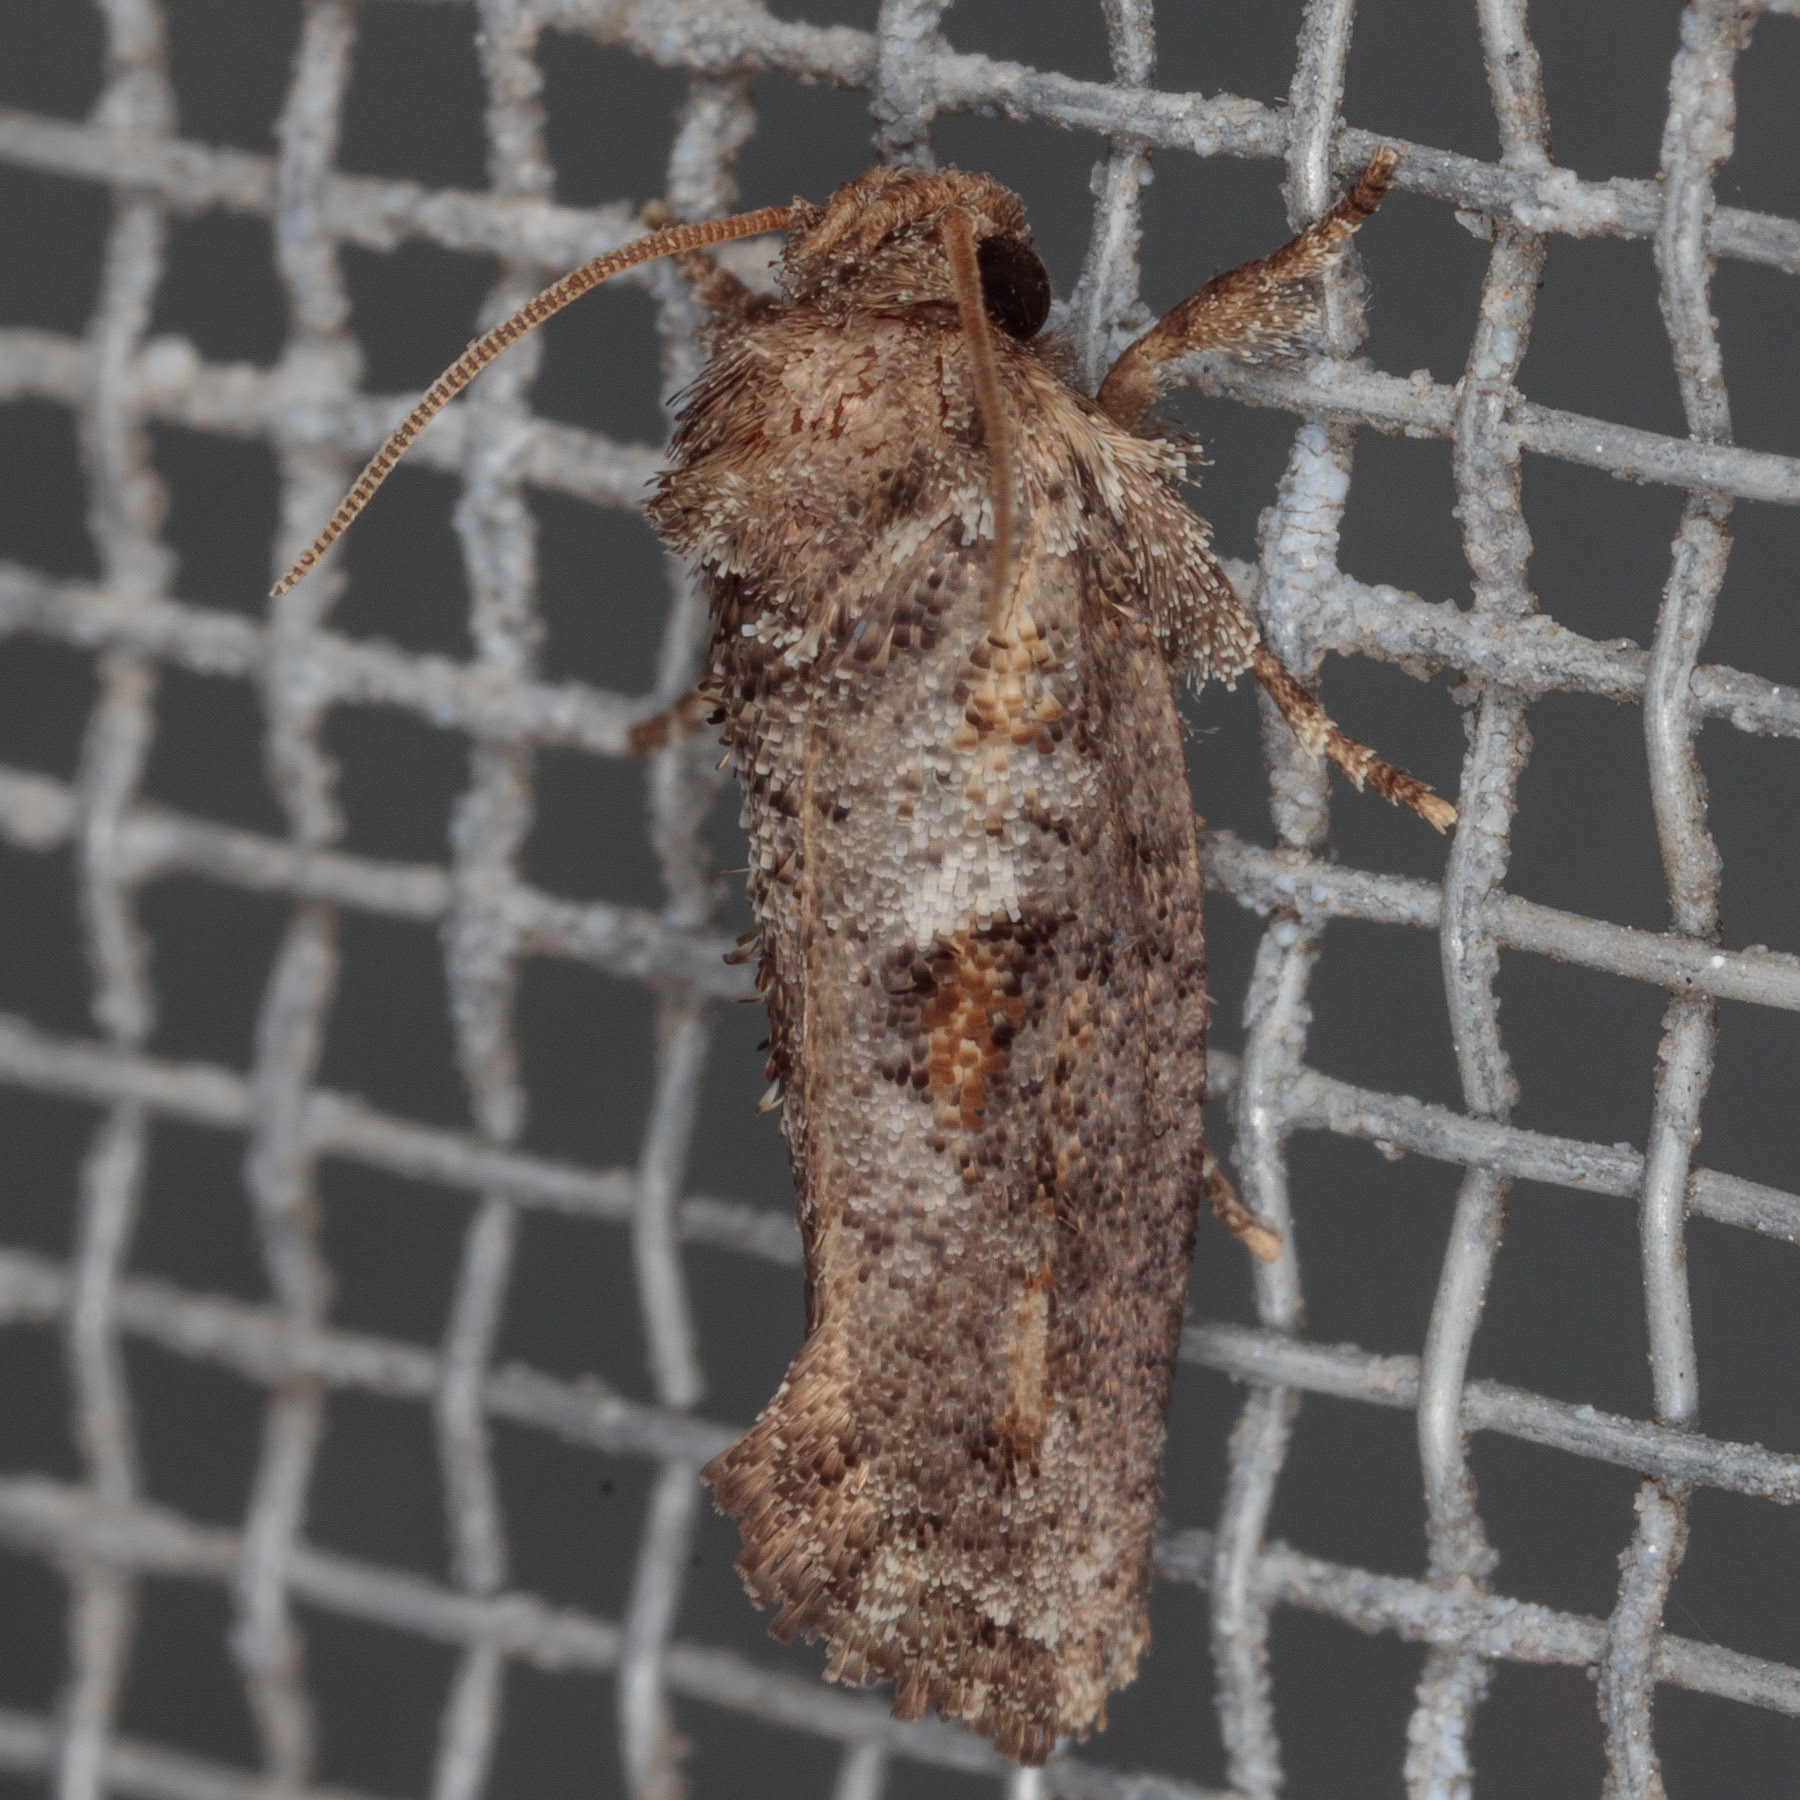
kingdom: Animalia
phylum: Arthropoda
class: Insecta
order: Lepidoptera
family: Tineidae
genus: Acrolophus
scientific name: Acrolophus piger
